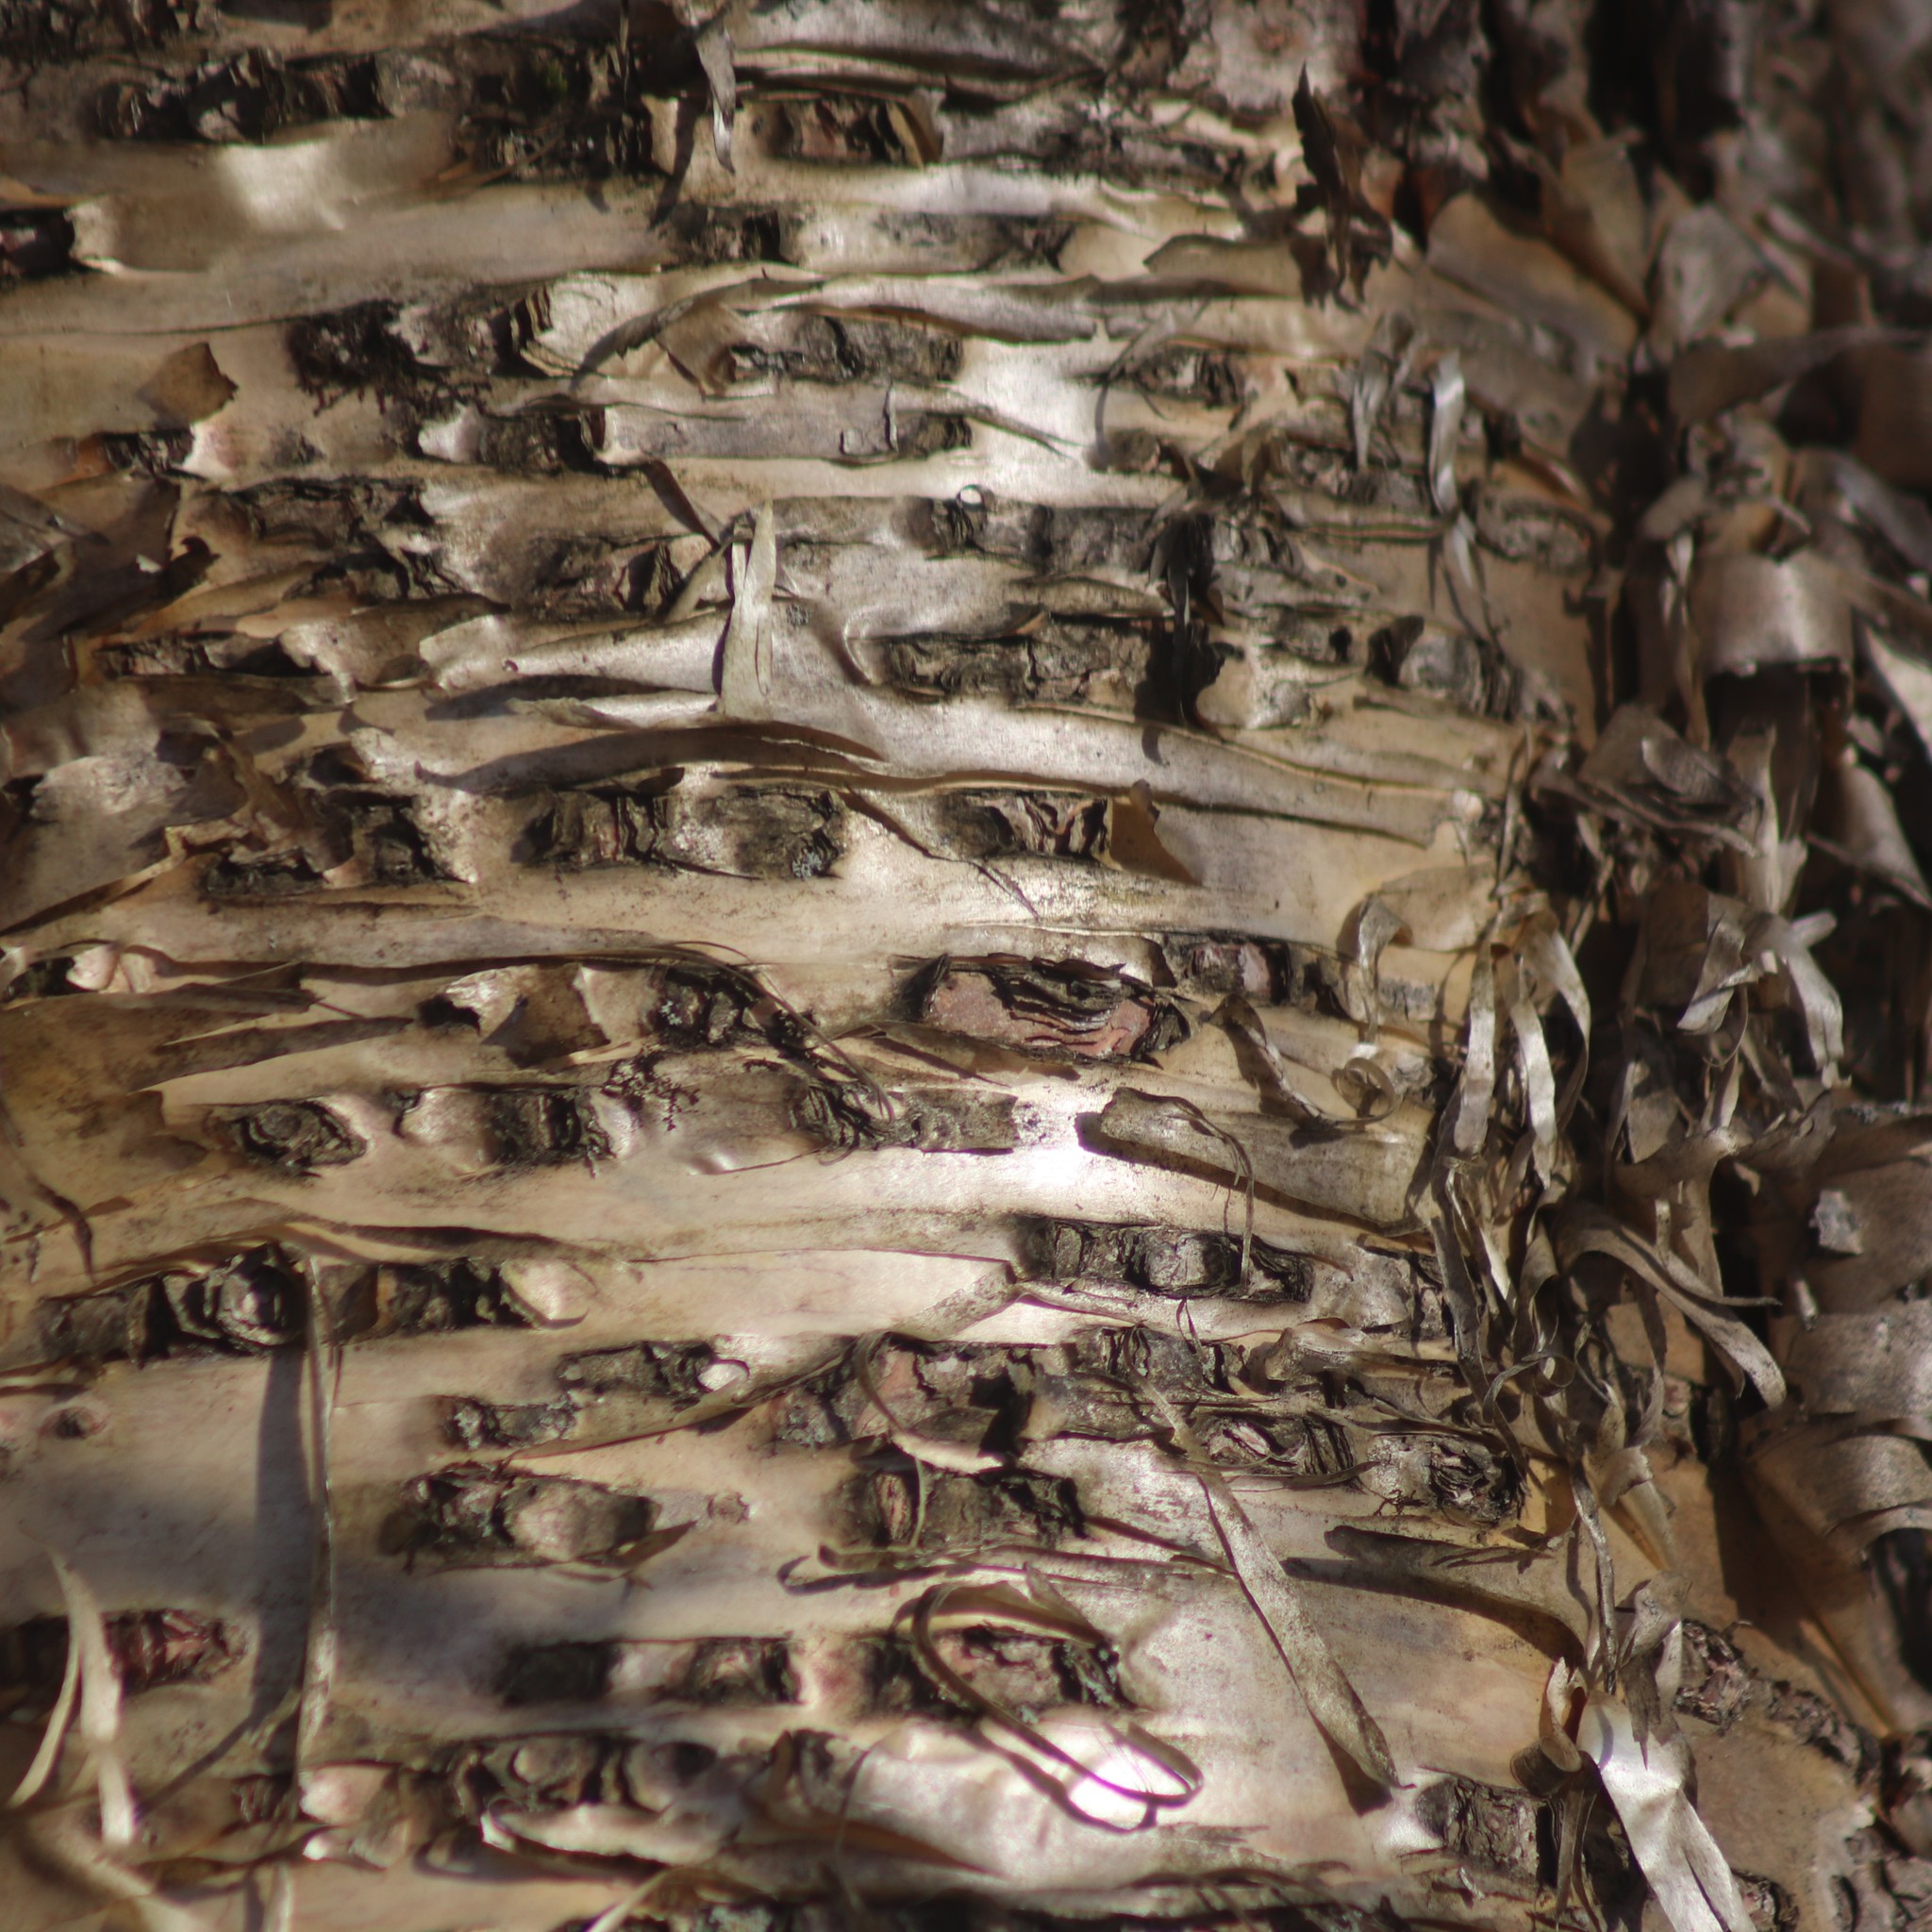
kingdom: Plantae
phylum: Tracheophyta
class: Magnoliopsida
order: Fagales
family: Betulaceae
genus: Betula
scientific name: Betula alleghaniensis
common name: Yellow birch
